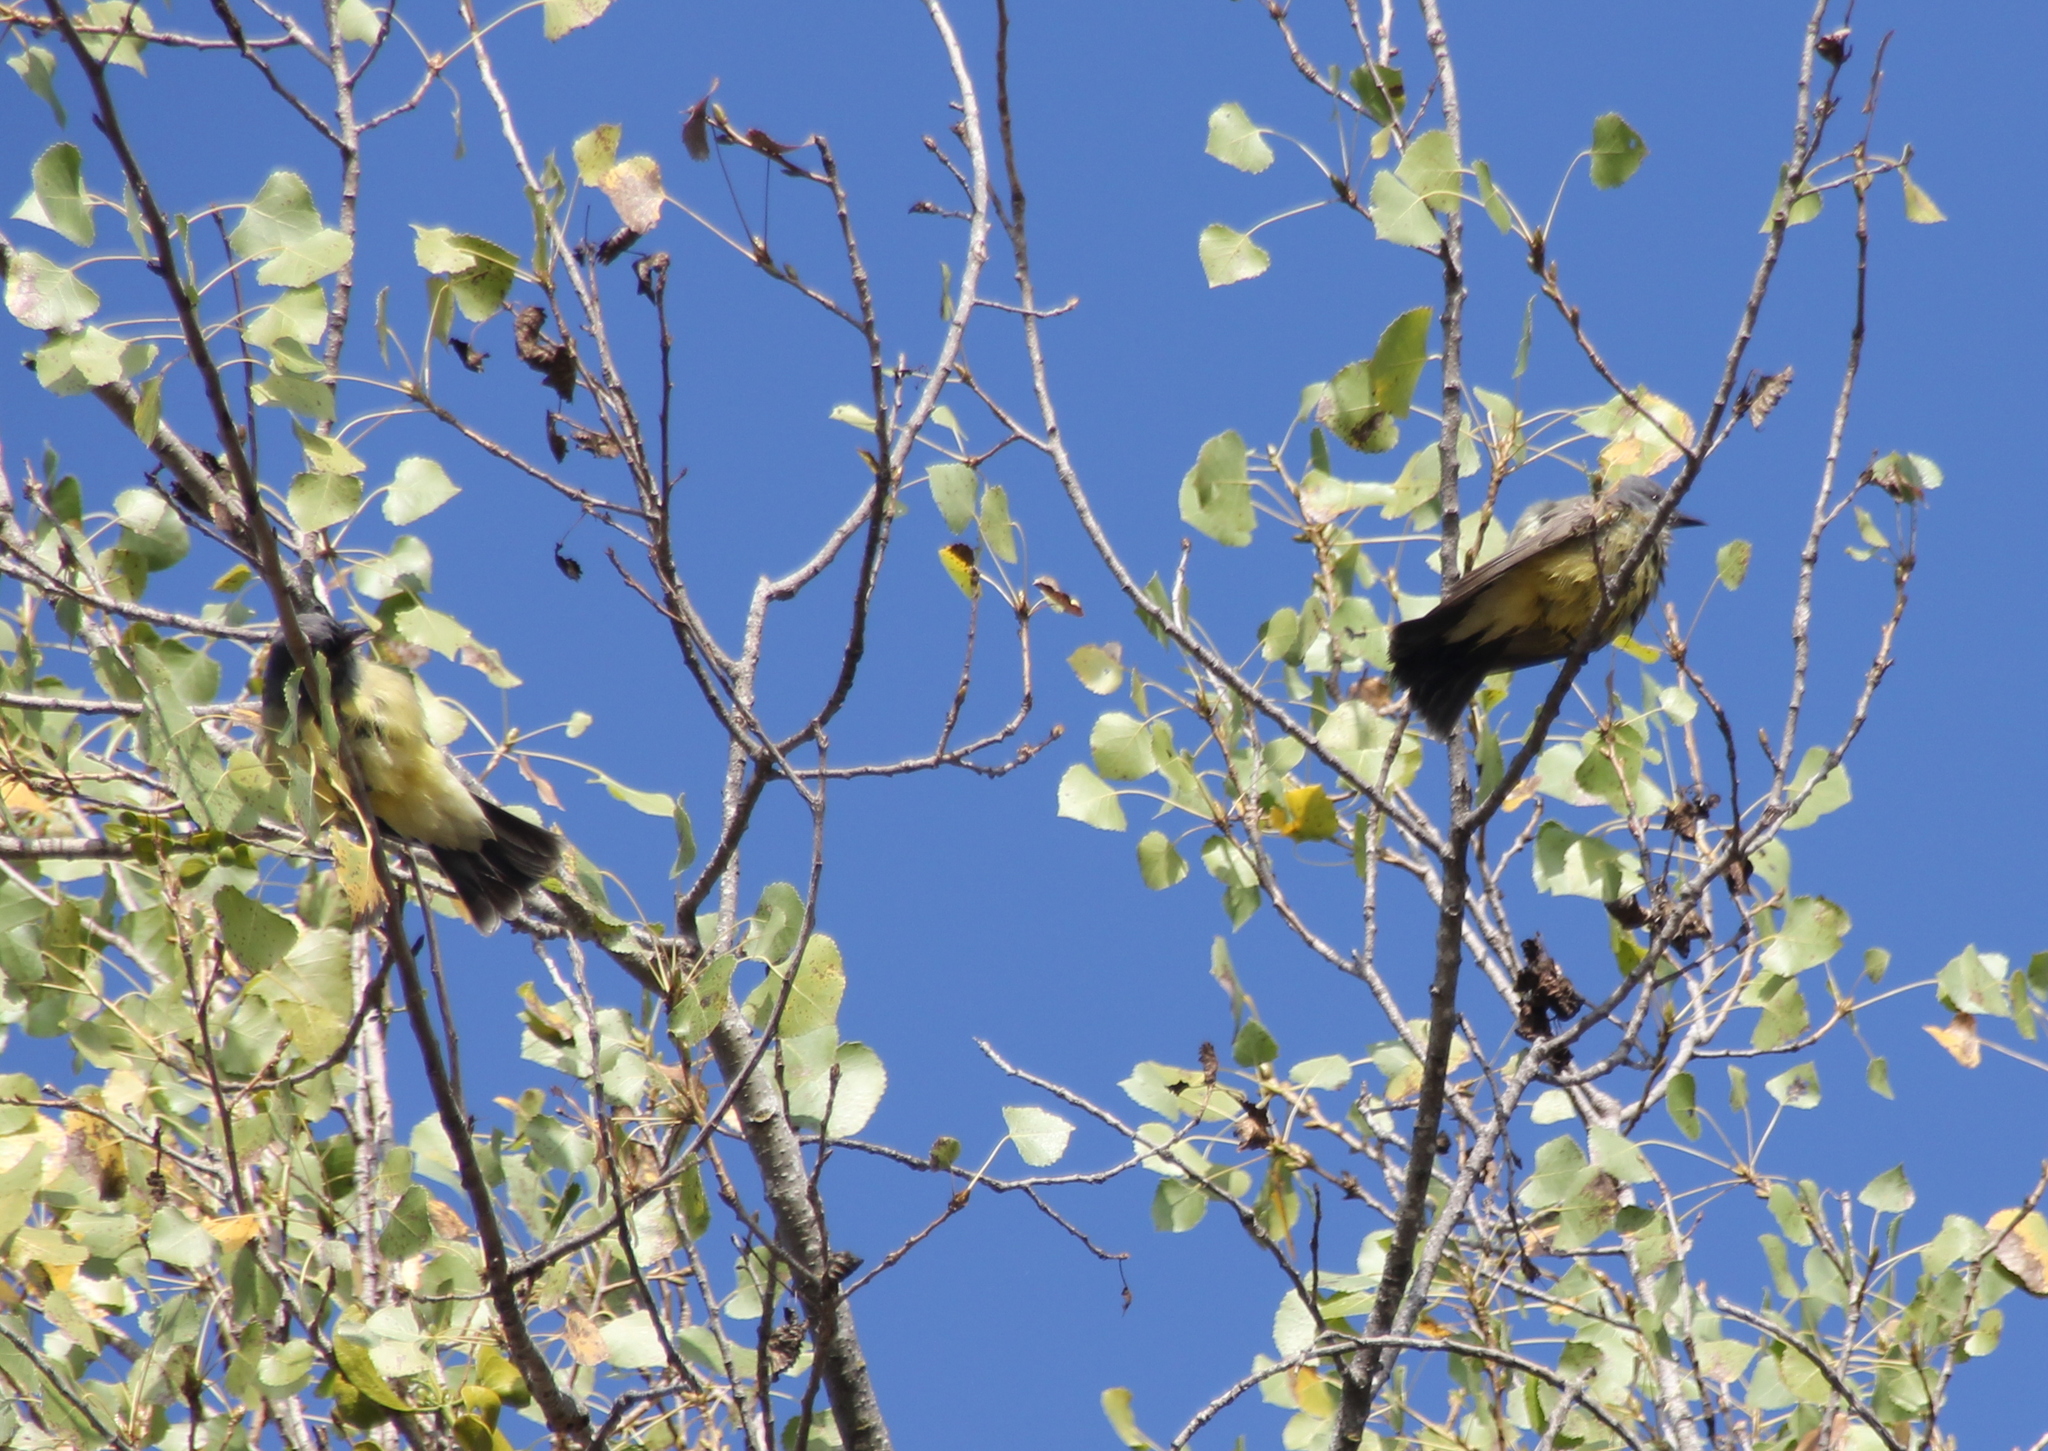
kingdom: Animalia
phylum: Chordata
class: Aves
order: Passeriformes
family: Tyrannidae
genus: Tyrannus
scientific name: Tyrannus vociferans
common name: Cassin's kingbird
